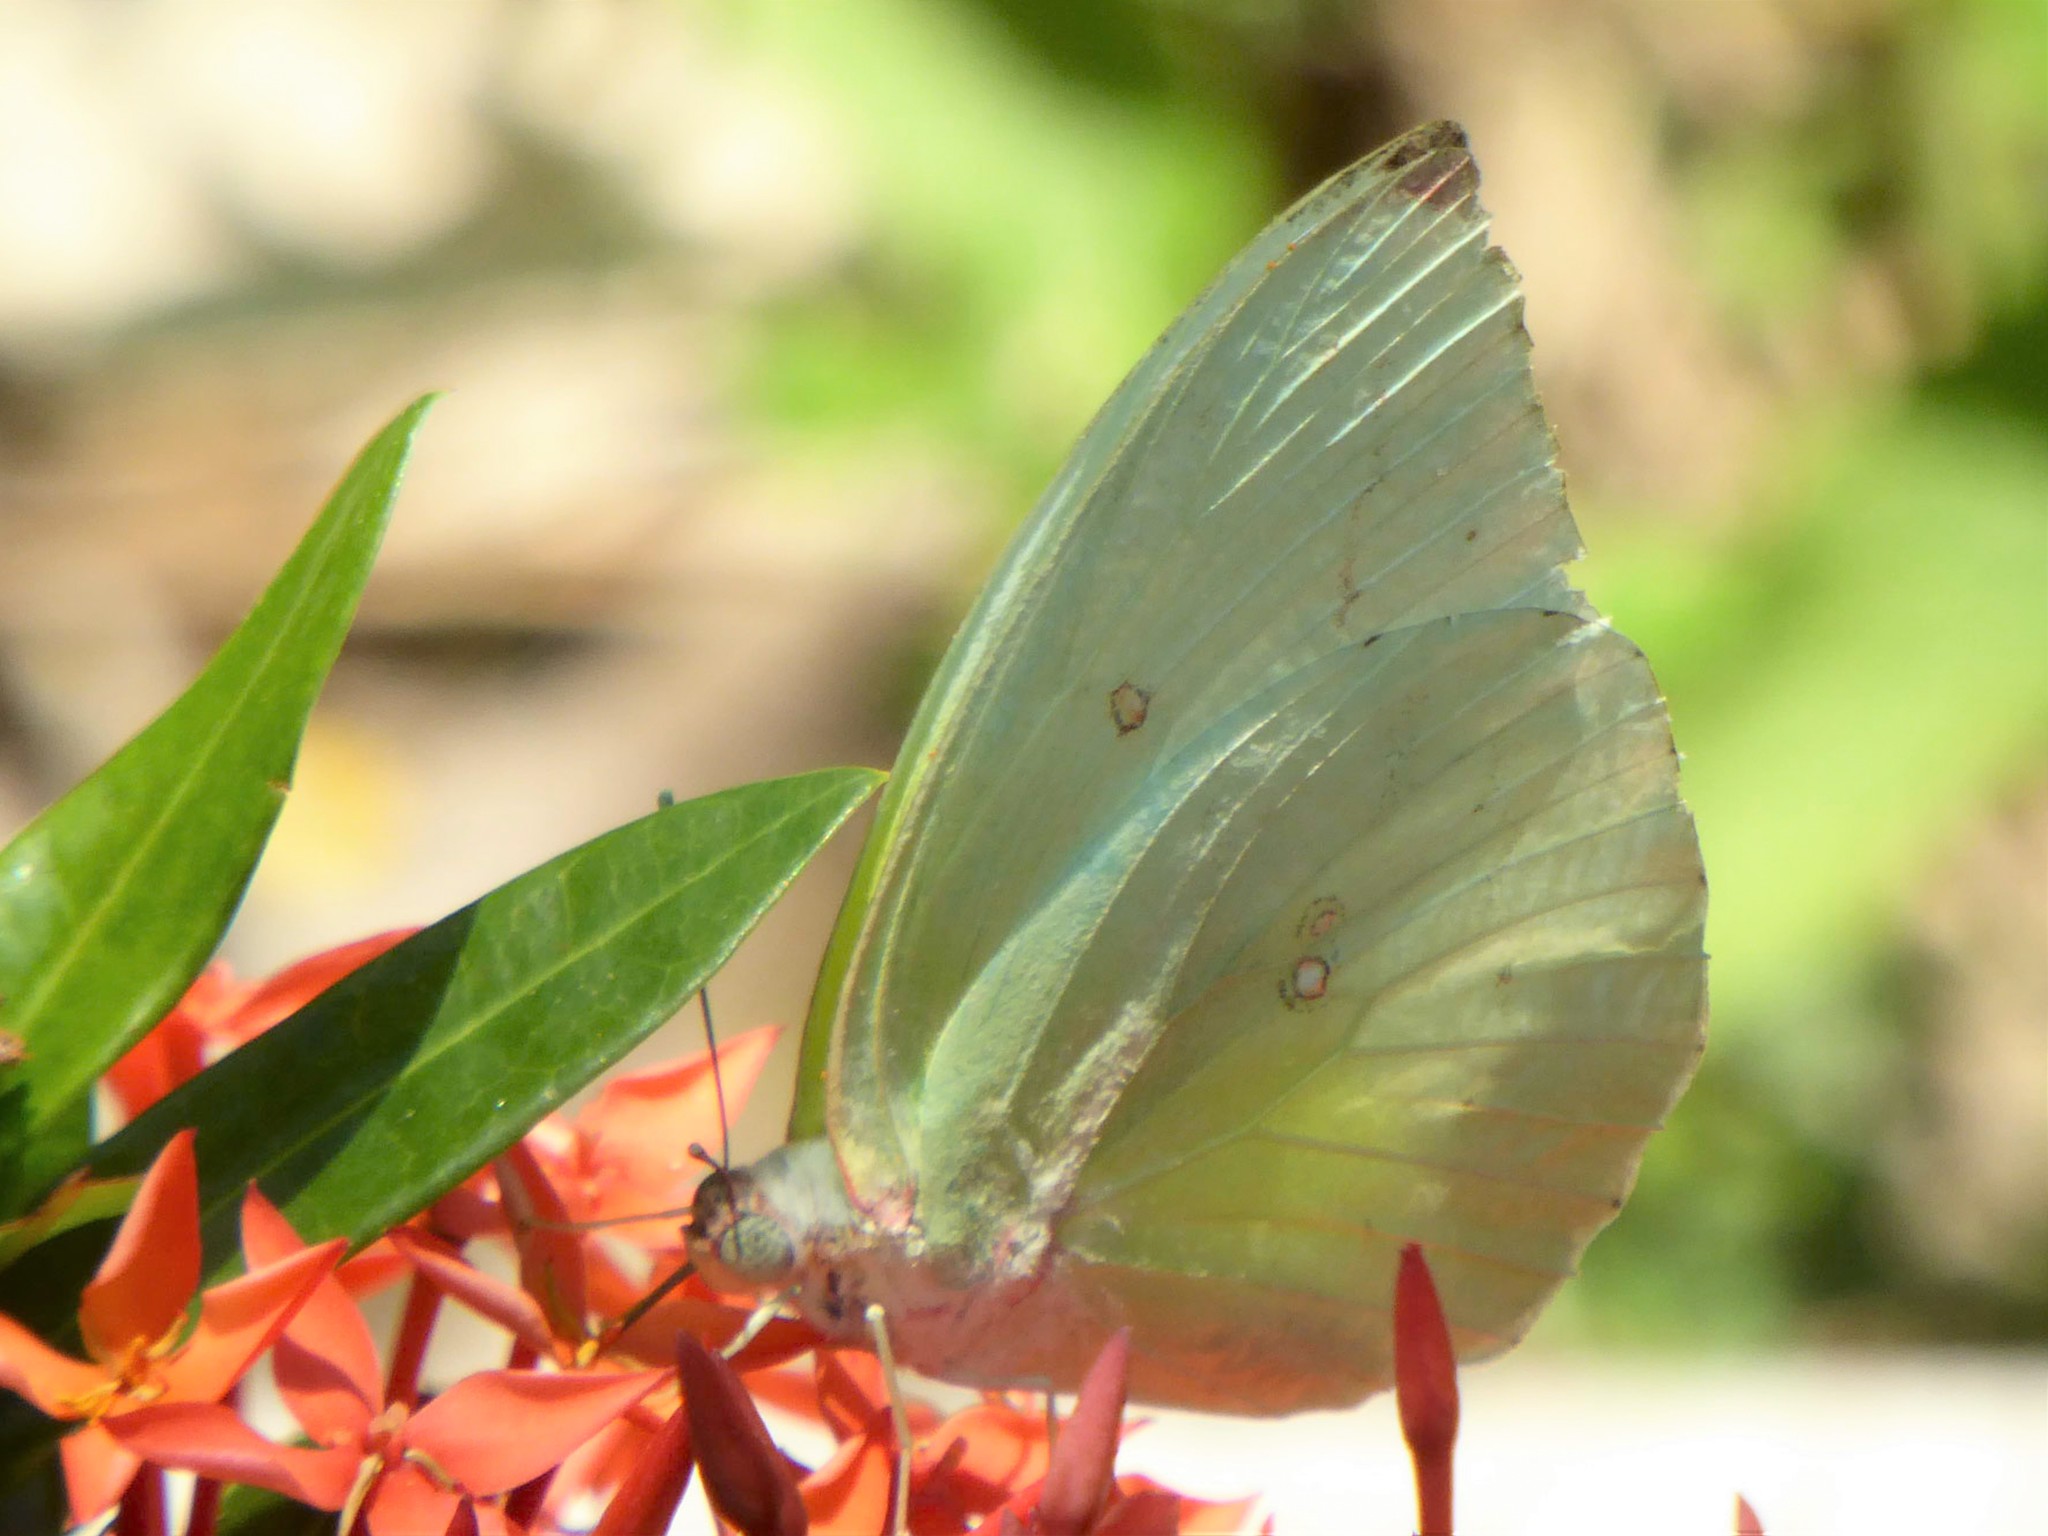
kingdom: Animalia
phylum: Arthropoda
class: Insecta
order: Lepidoptera
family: Pieridae
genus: Catopsilia
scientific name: Catopsilia pomona
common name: Common emigrant
